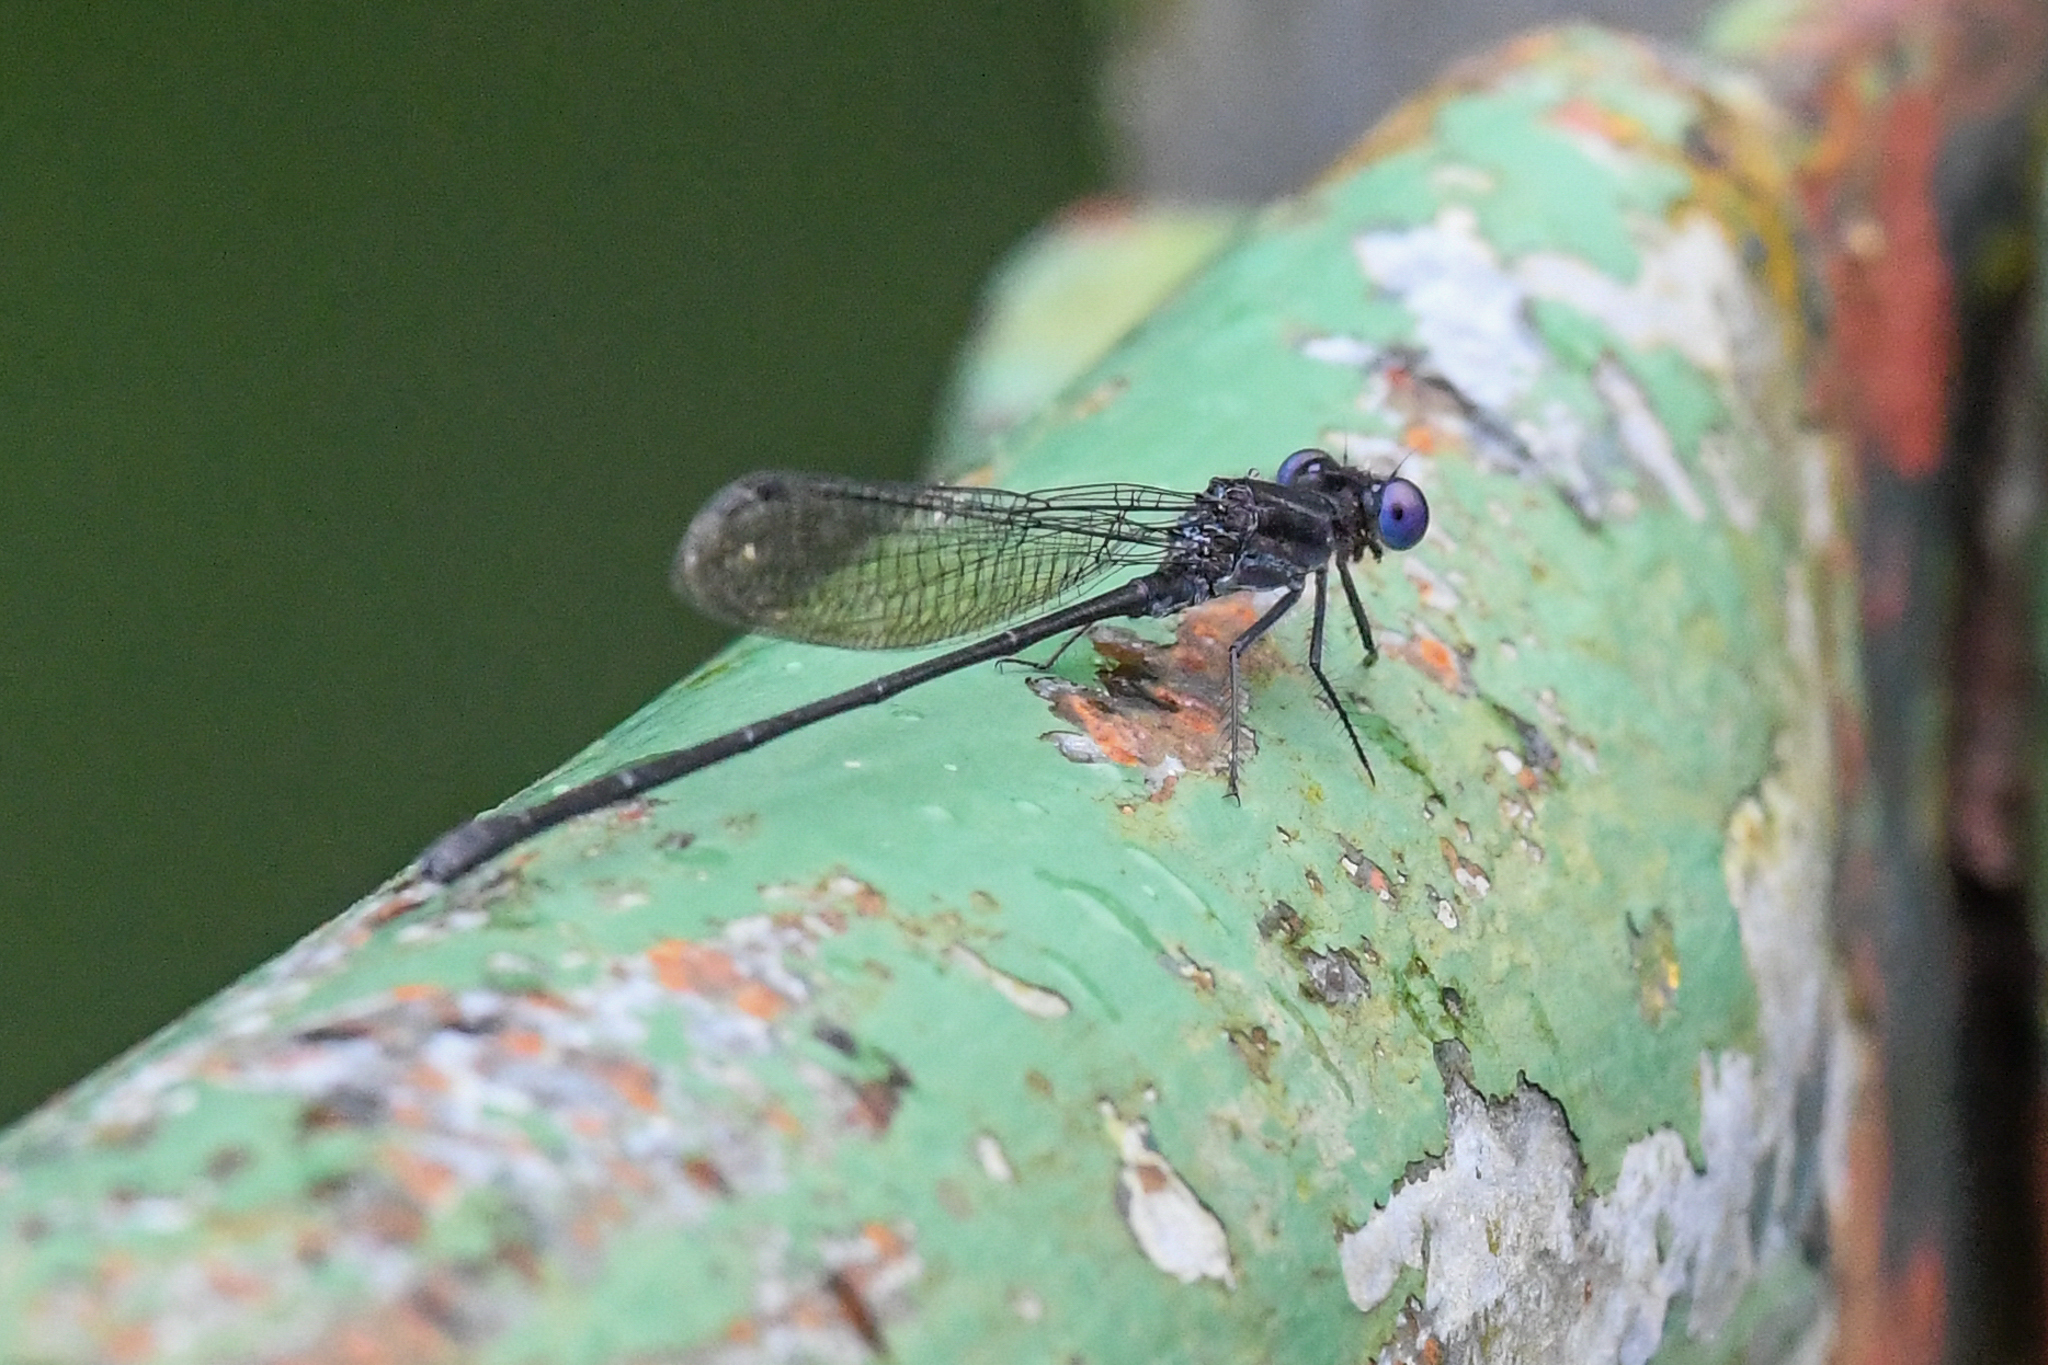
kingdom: Animalia
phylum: Arthropoda
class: Insecta
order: Odonata
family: Coenagrionidae
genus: Argia
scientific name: Argia translata
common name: Dusky dancer
